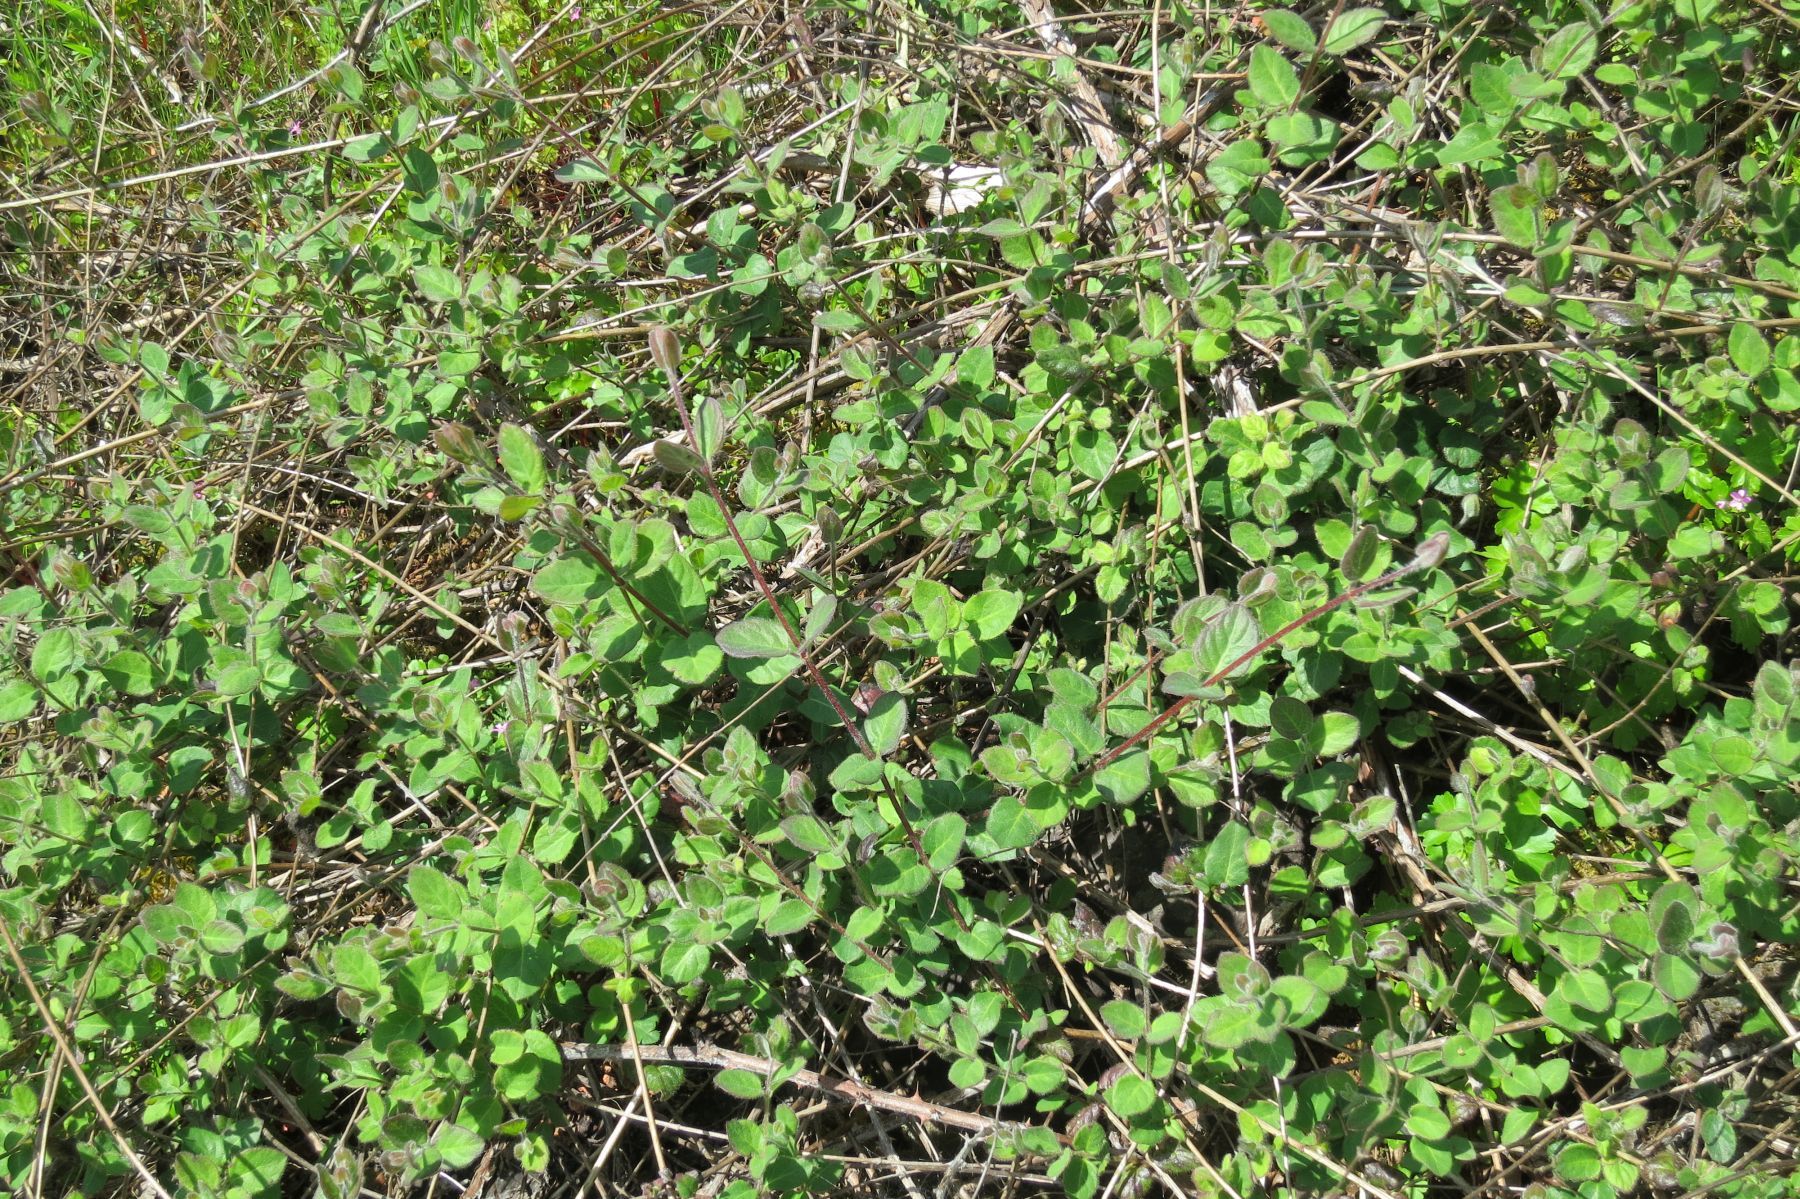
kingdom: Plantae
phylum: Tracheophyta
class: Magnoliopsida
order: Dipsacales
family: Caprifoliaceae
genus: Lonicera
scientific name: Lonicera hispidula
